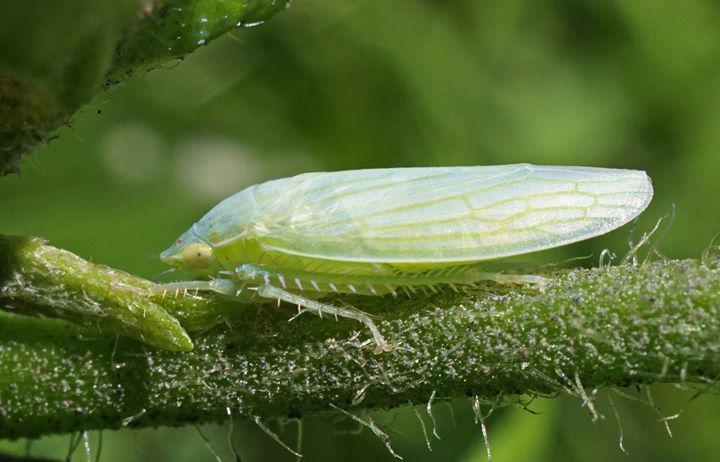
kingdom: Animalia
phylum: Arthropoda
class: Insecta
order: Hemiptera
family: Cicadellidae
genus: Gyponana
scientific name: Gyponana tenella
